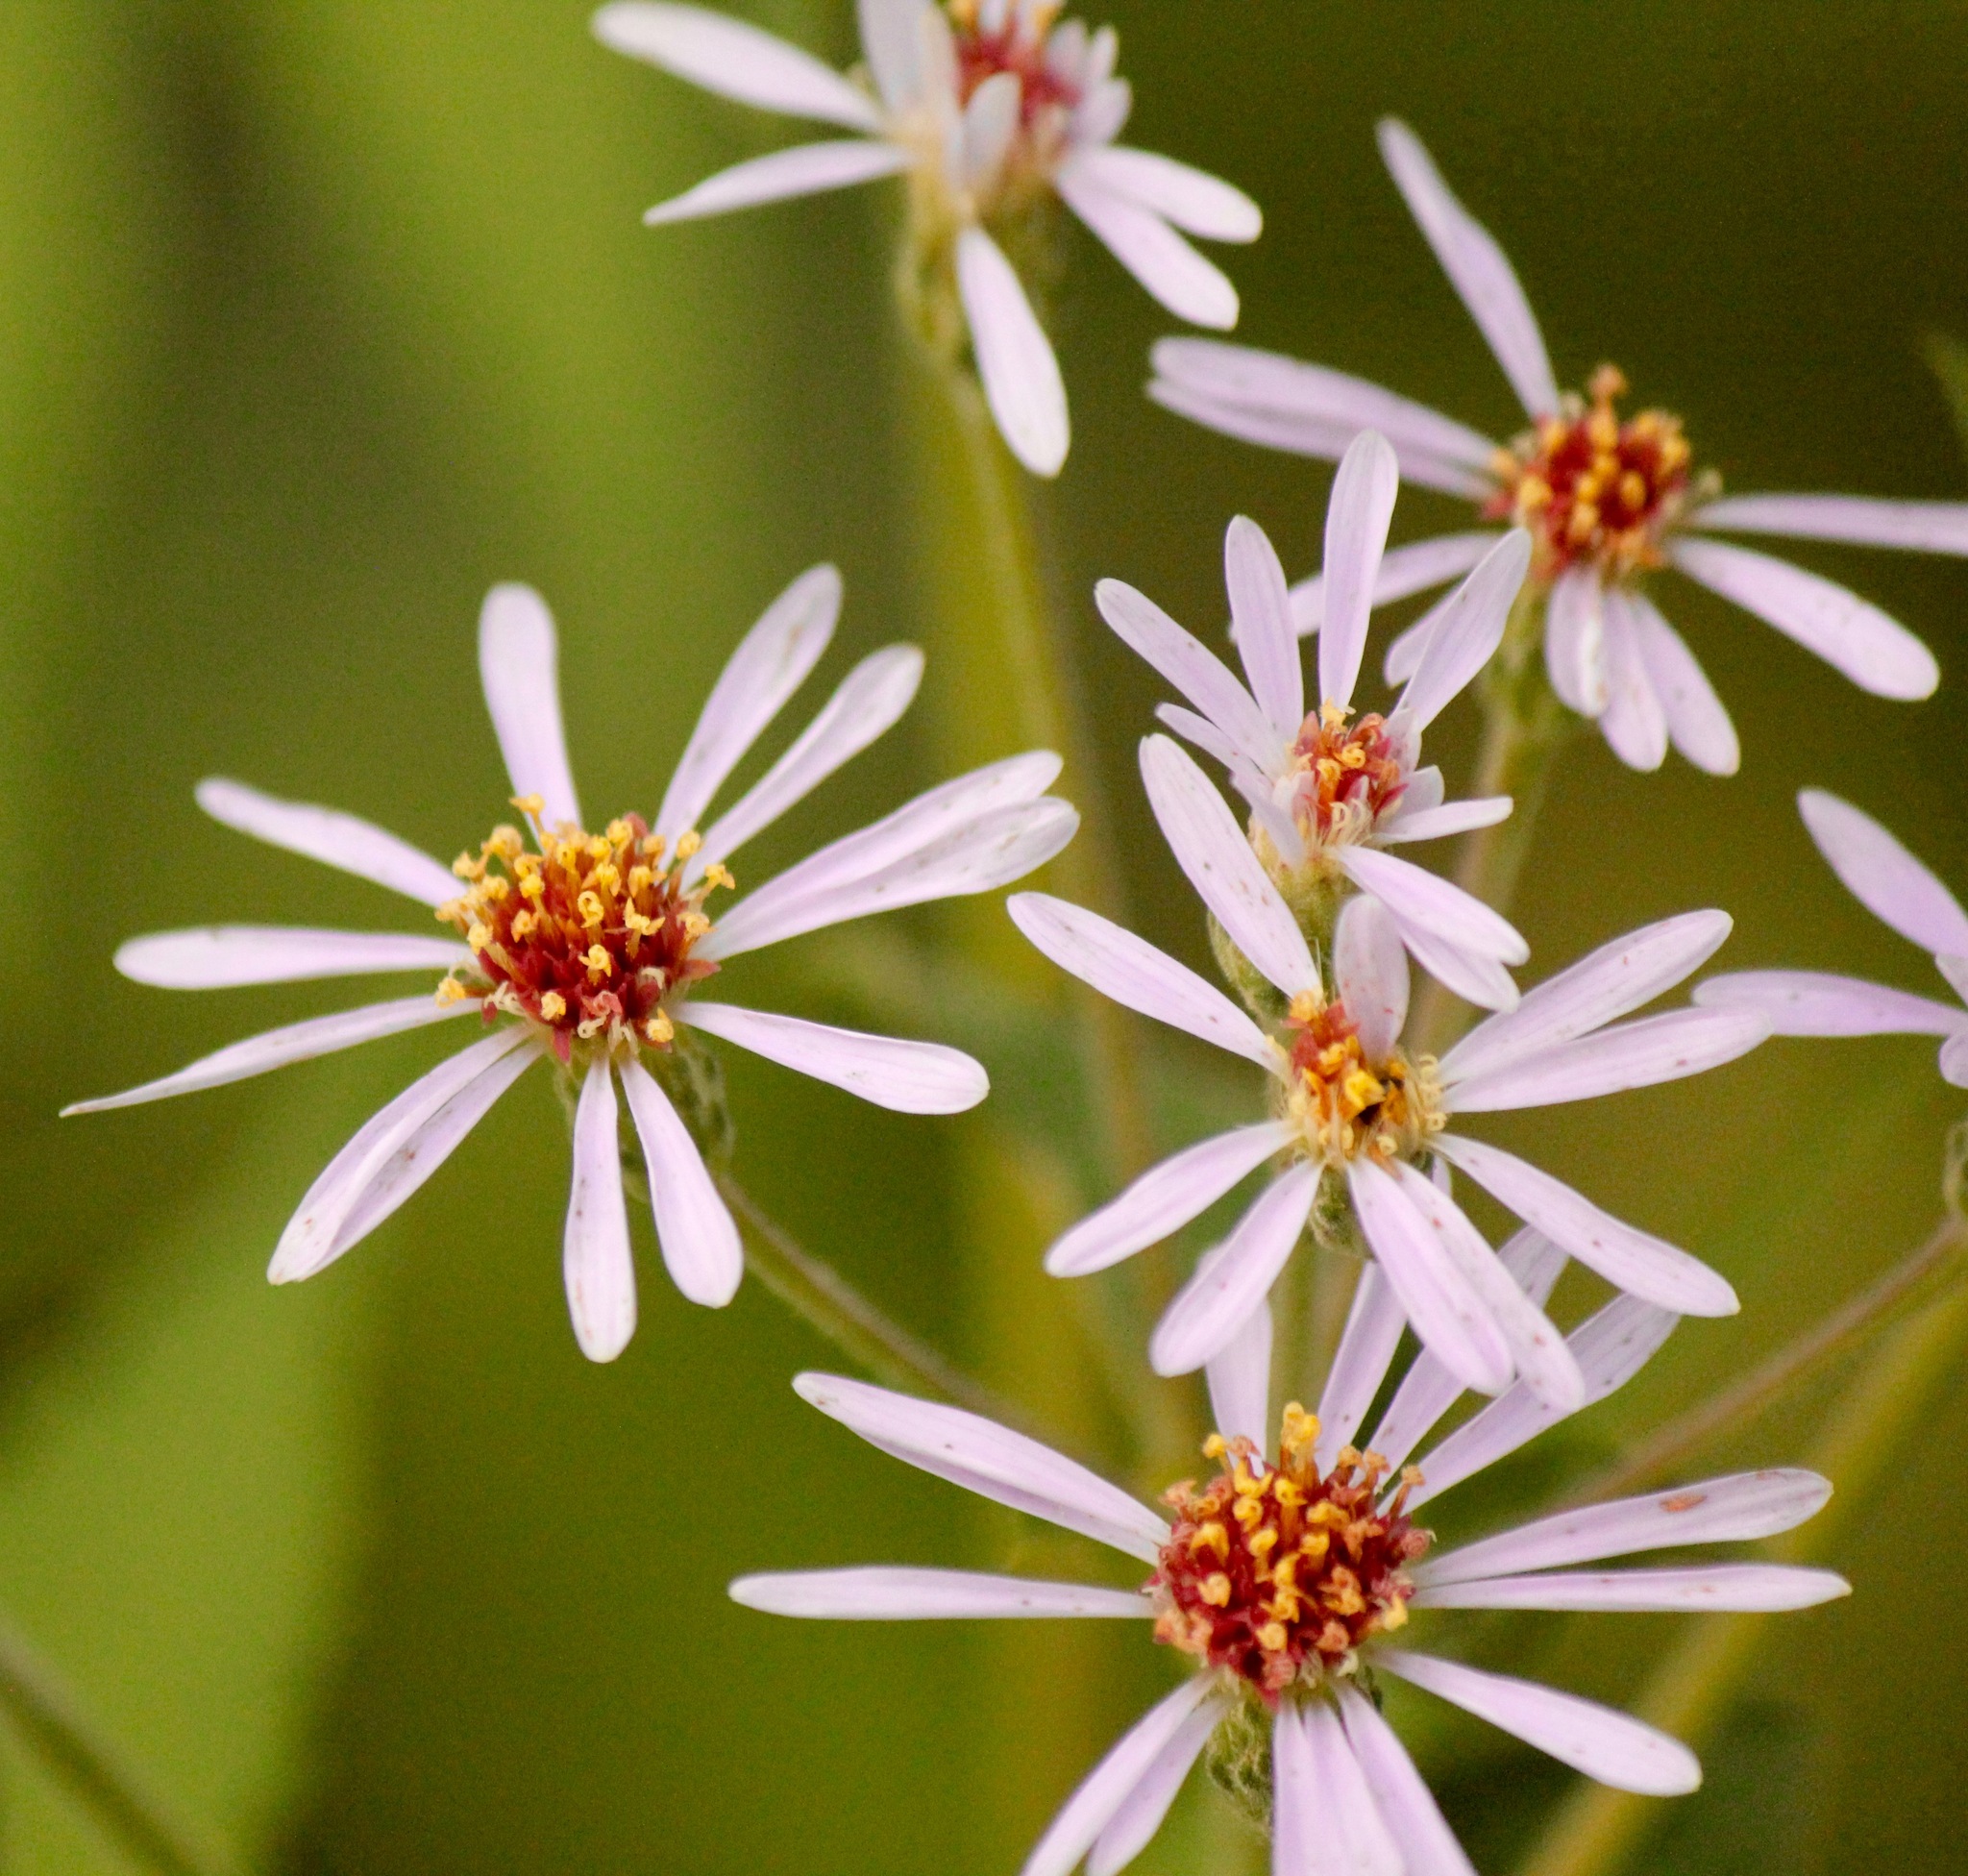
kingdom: Plantae
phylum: Tracheophyta
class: Magnoliopsida
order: Asterales
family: Asteraceae
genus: Eurybia
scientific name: Eurybia macrophylla
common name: Big-leaved aster
